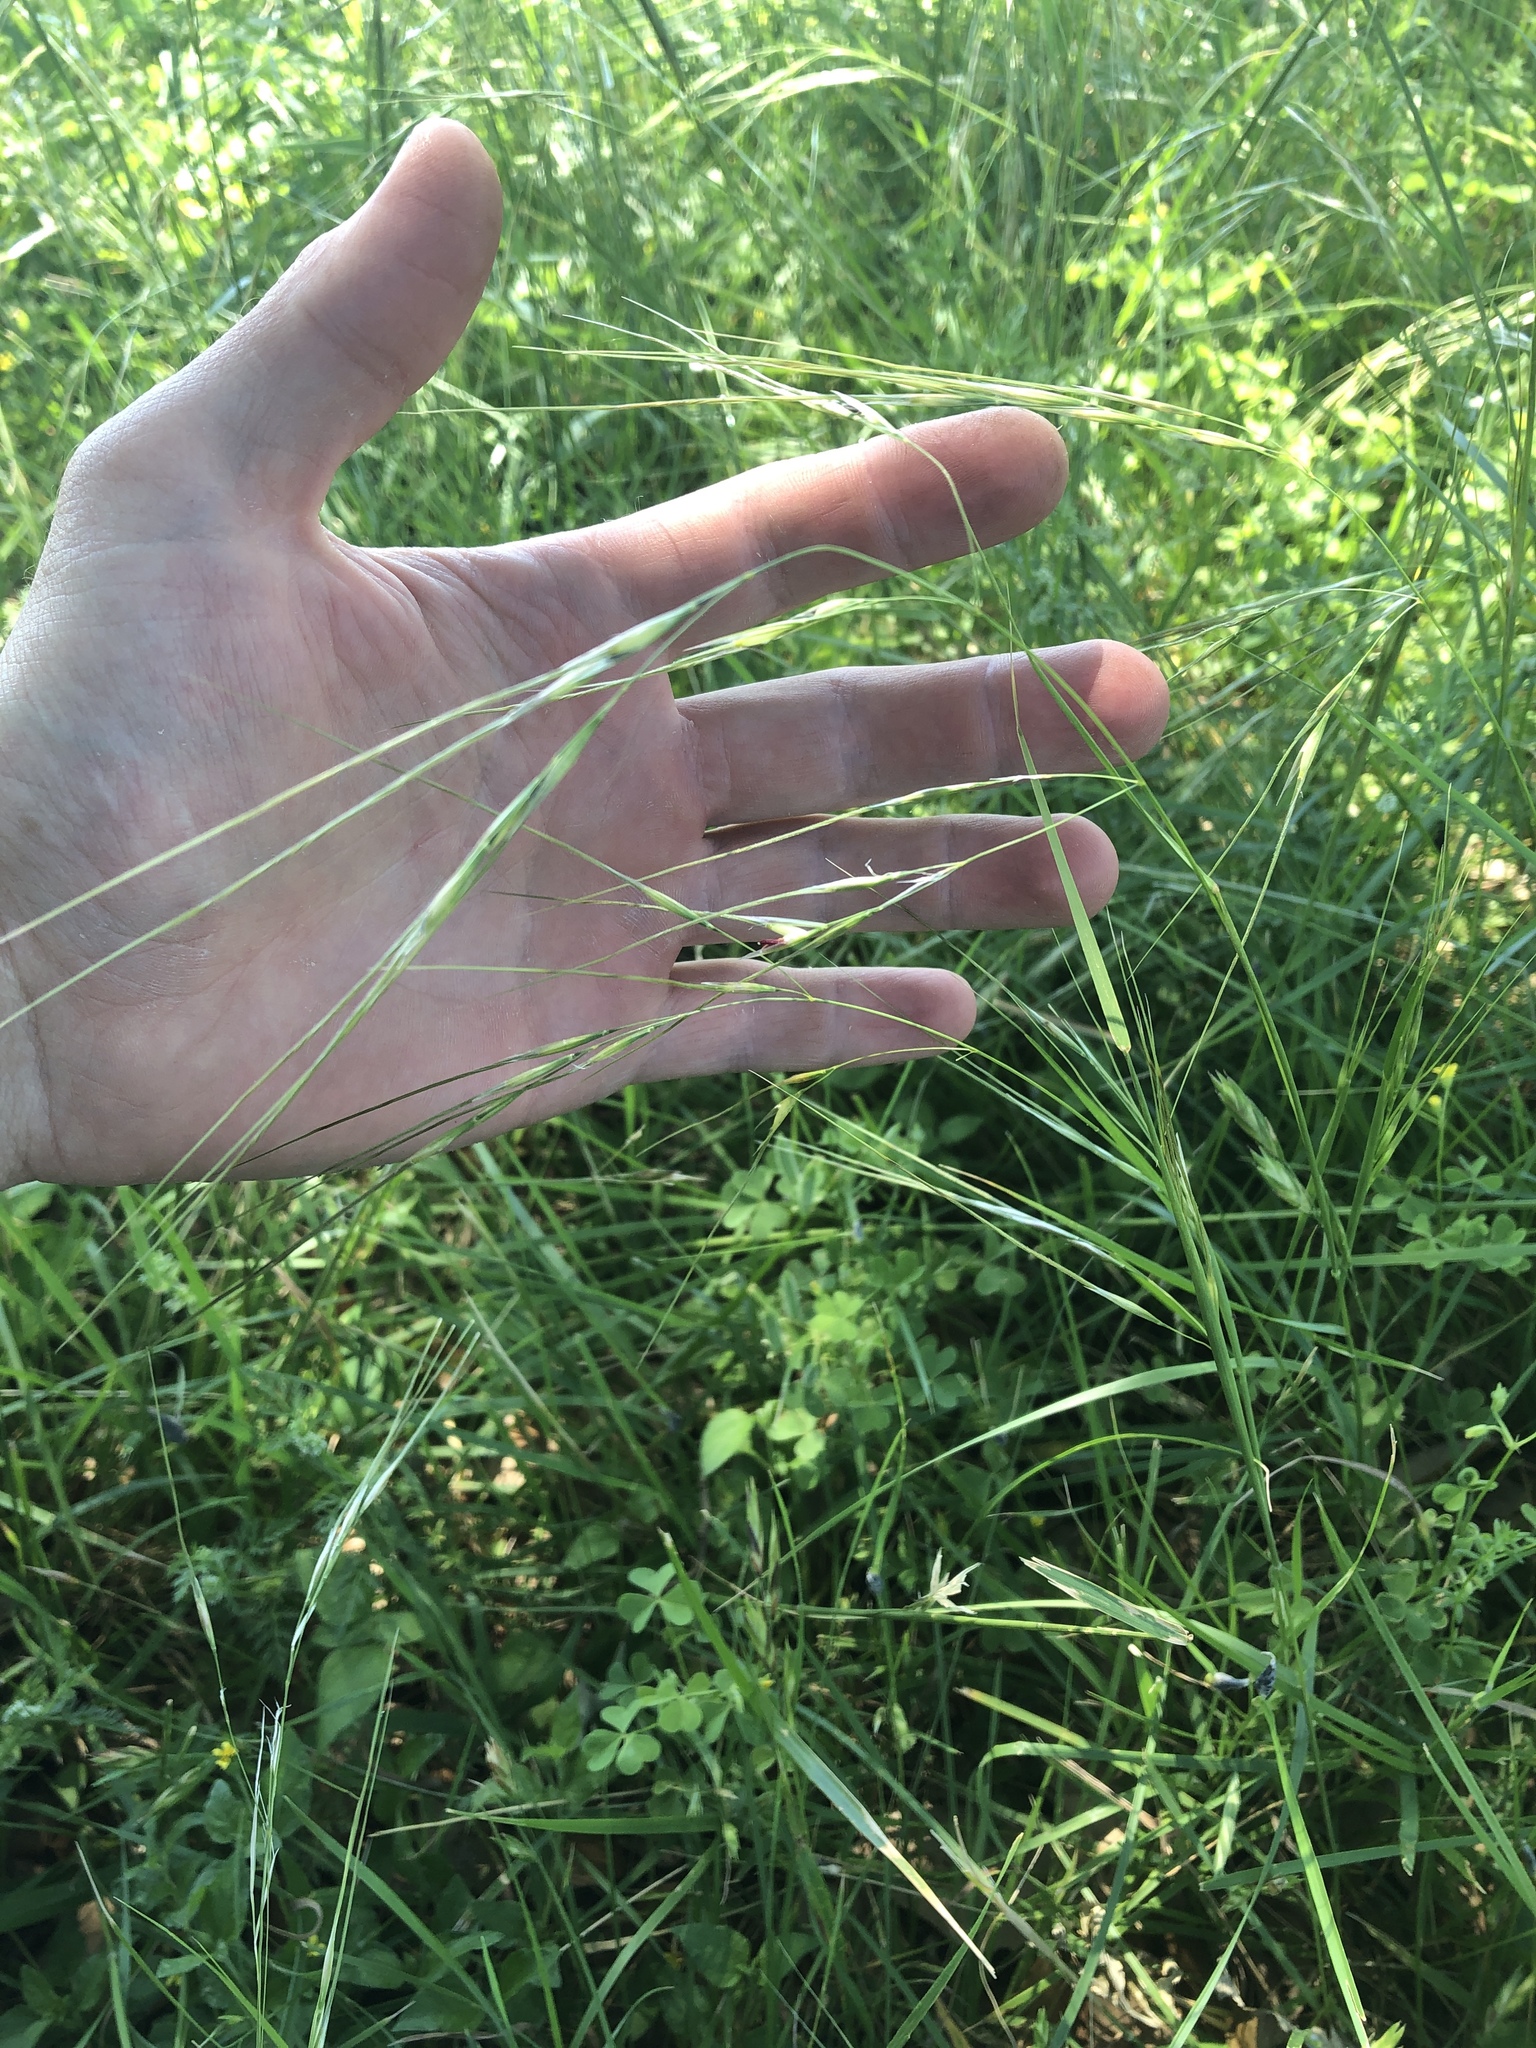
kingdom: Plantae
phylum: Tracheophyta
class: Liliopsida
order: Poales
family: Poaceae
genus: Nassella
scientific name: Nassella leucotricha
